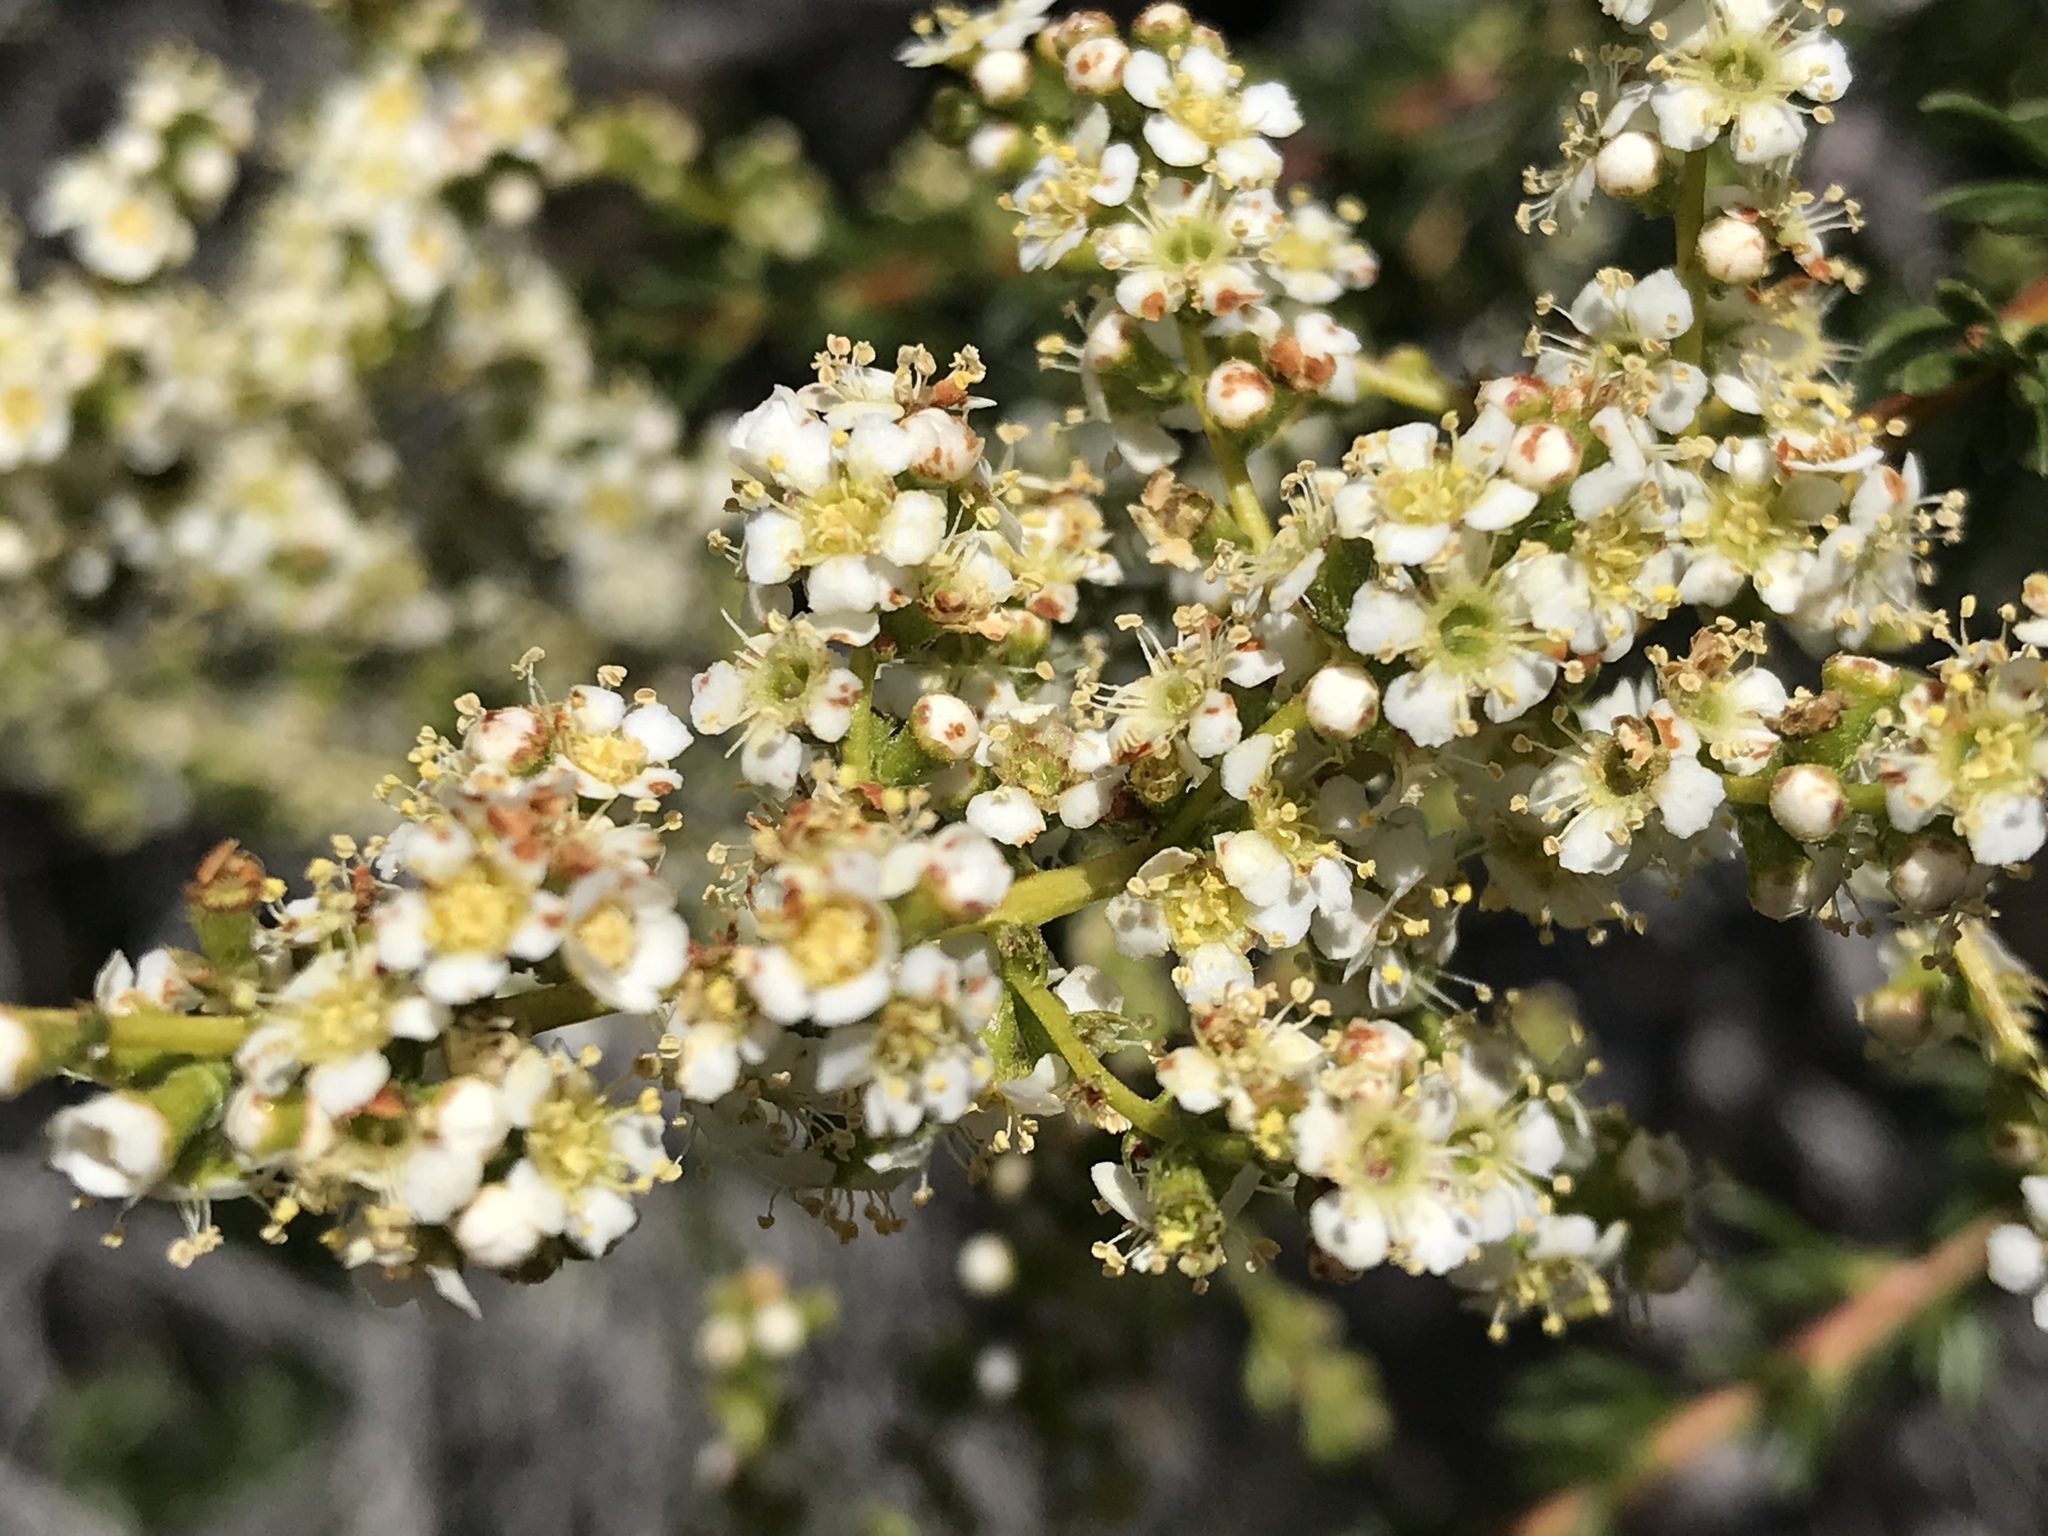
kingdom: Plantae
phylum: Tracheophyta
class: Magnoliopsida
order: Rosales
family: Rosaceae
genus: Adenostoma
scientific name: Adenostoma fasciculatum
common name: Chamise
